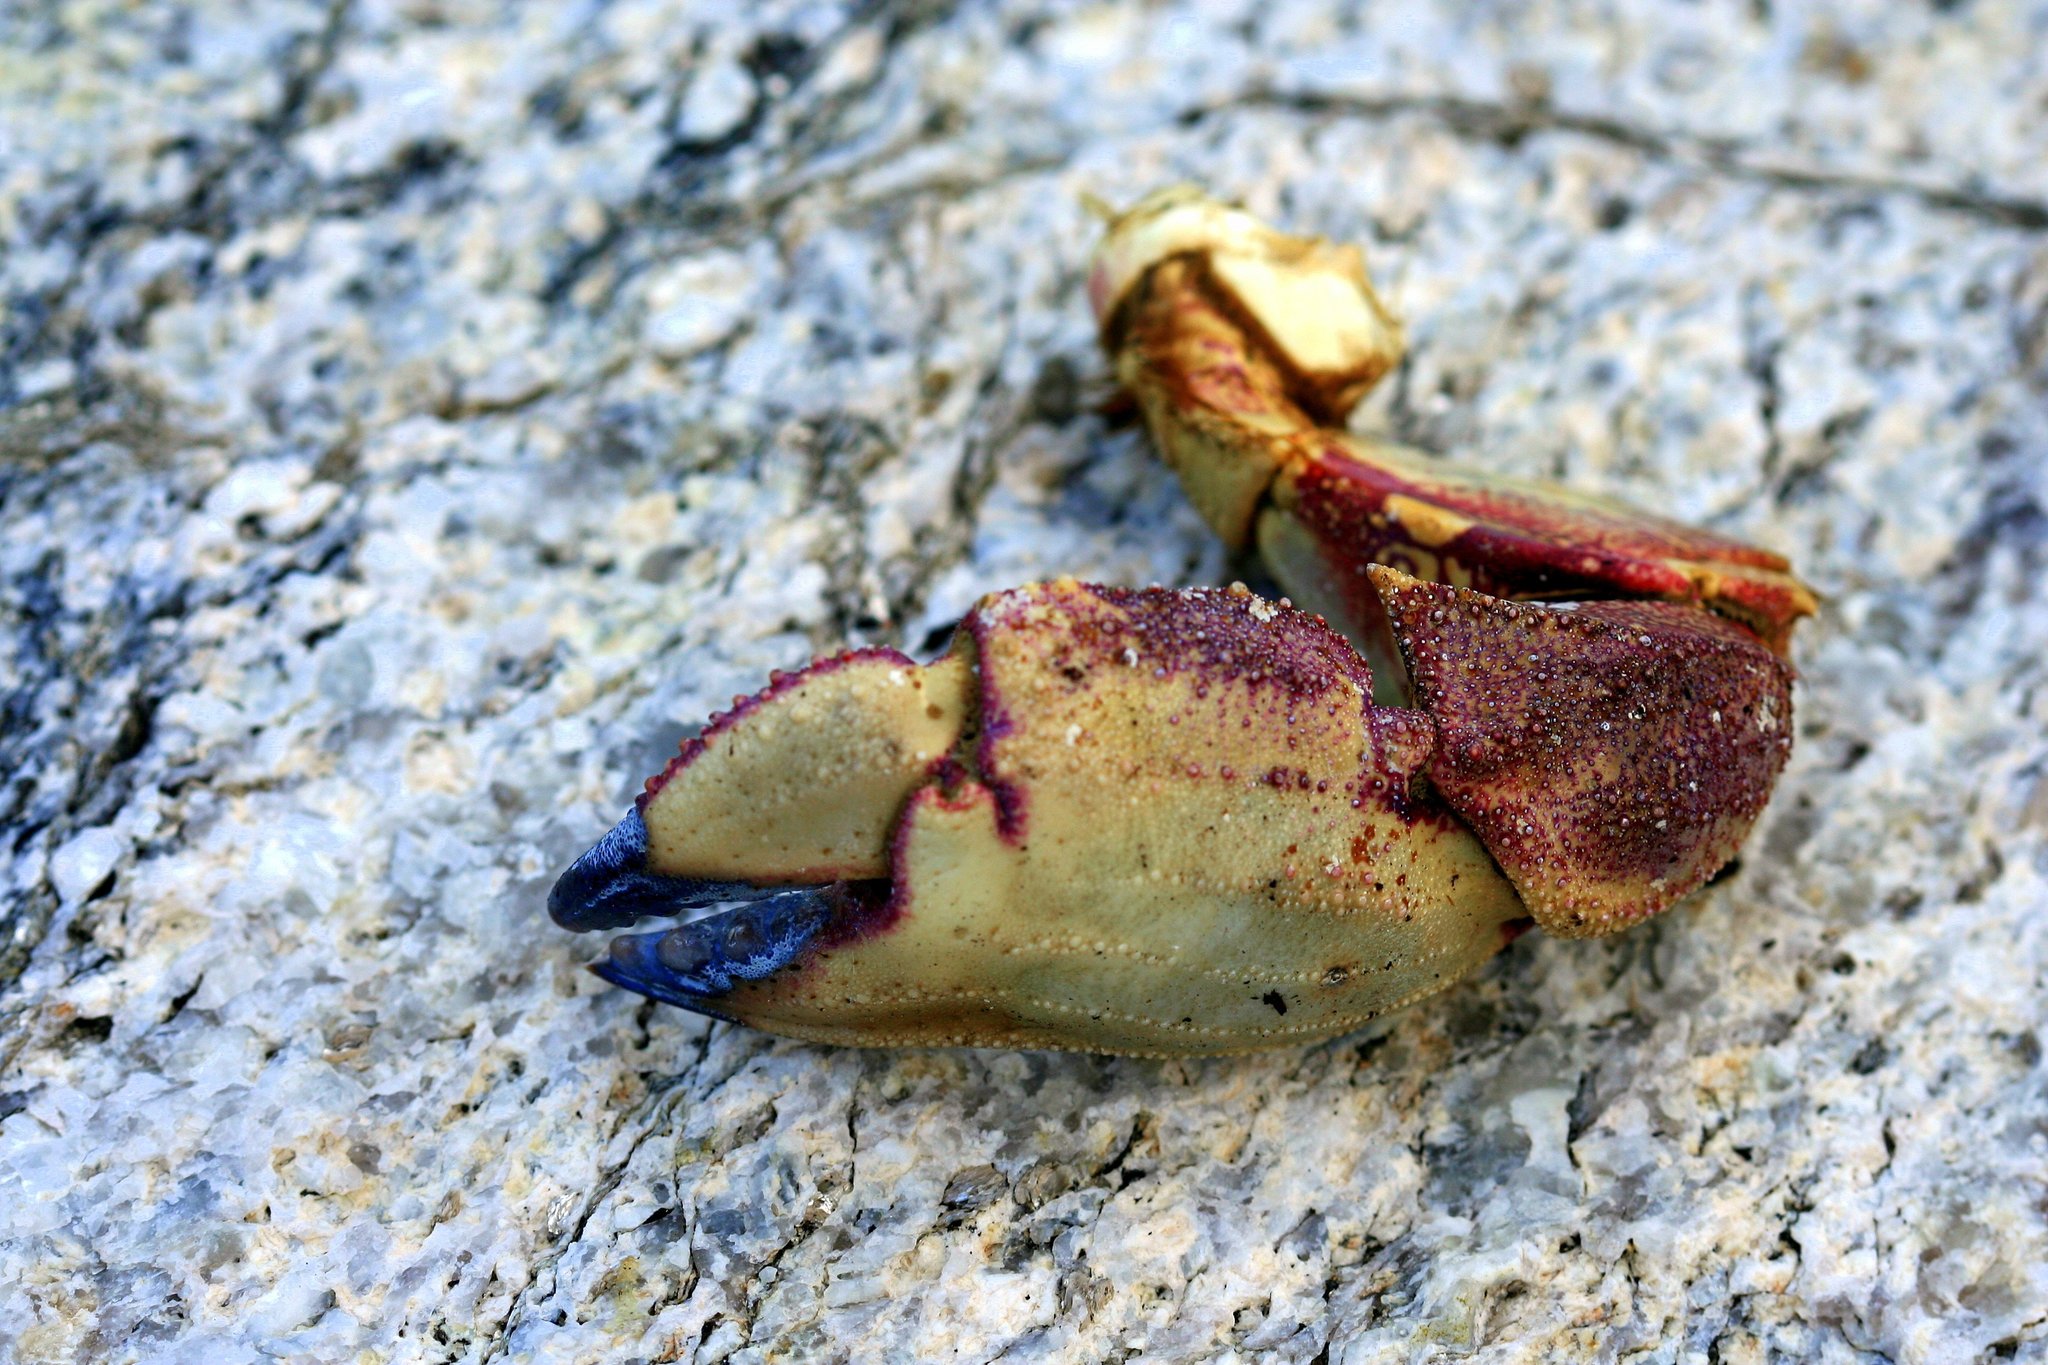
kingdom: Animalia
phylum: Arthropoda
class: Malacostraca
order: Decapoda
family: Cancridae
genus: Cancer
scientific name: Cancer borealis
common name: Jonah crab
